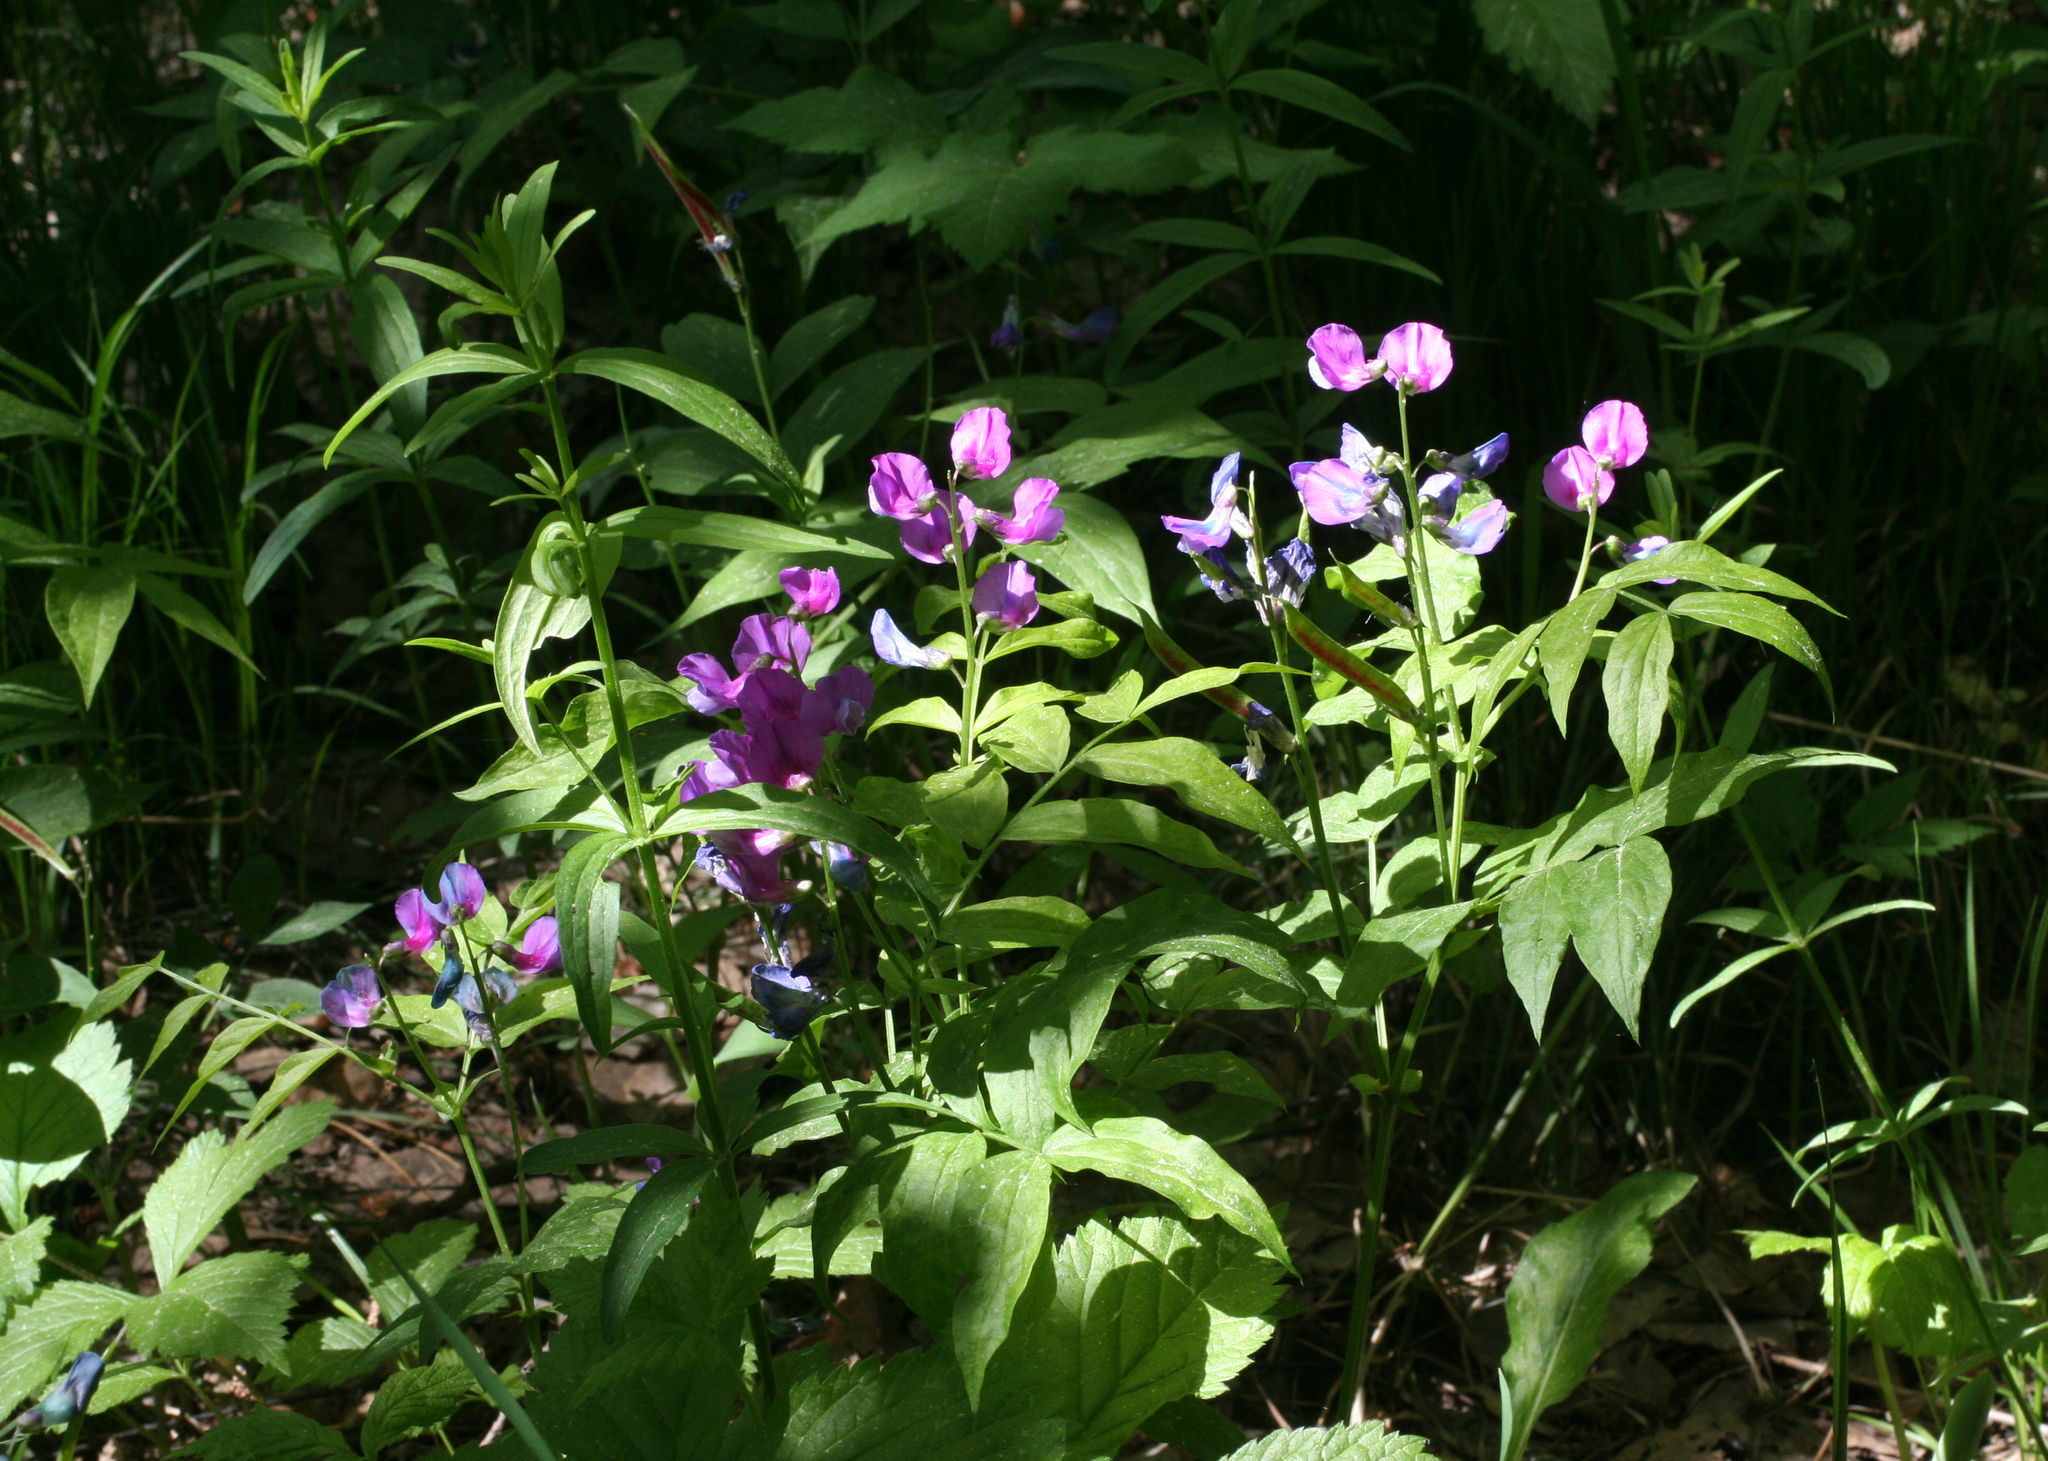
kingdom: Plantae
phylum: Tracheophyta
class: Magnoliopsida
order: Fabales
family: Fabaceae
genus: Lathyrus
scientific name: Lathyrus vernus
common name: Spring pea
